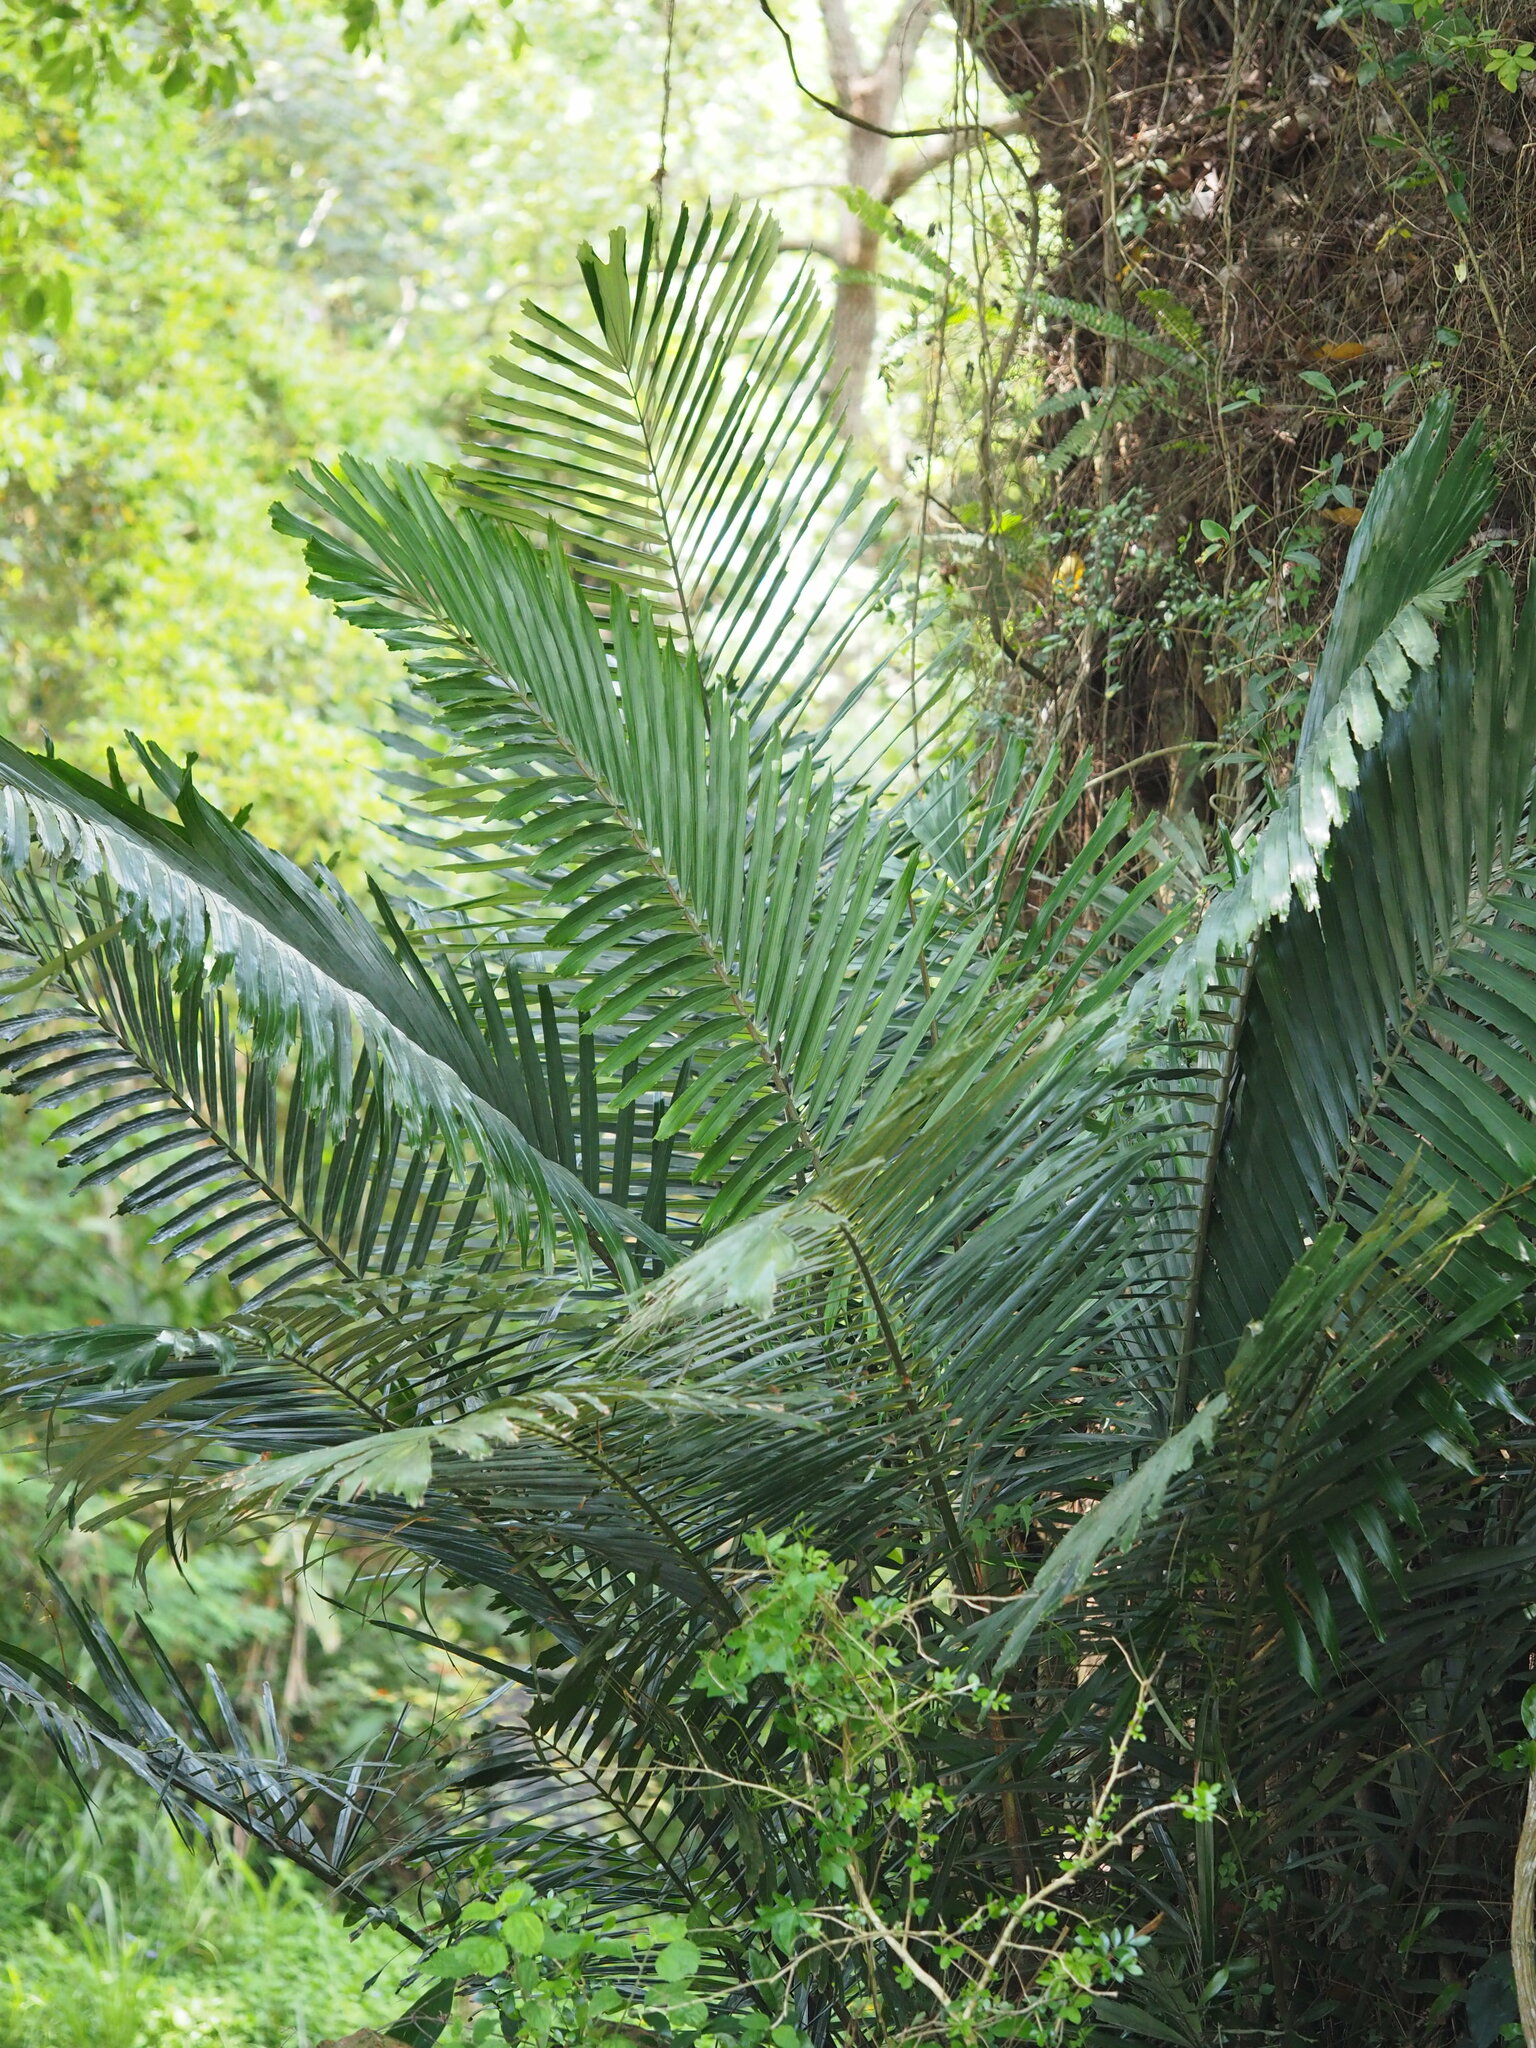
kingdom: Plantae
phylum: Tracheophyta
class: Liliopsida
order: Arecales
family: Arecaceae
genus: Arenga
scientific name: Arenga engleri
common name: Formosan sugar palm
